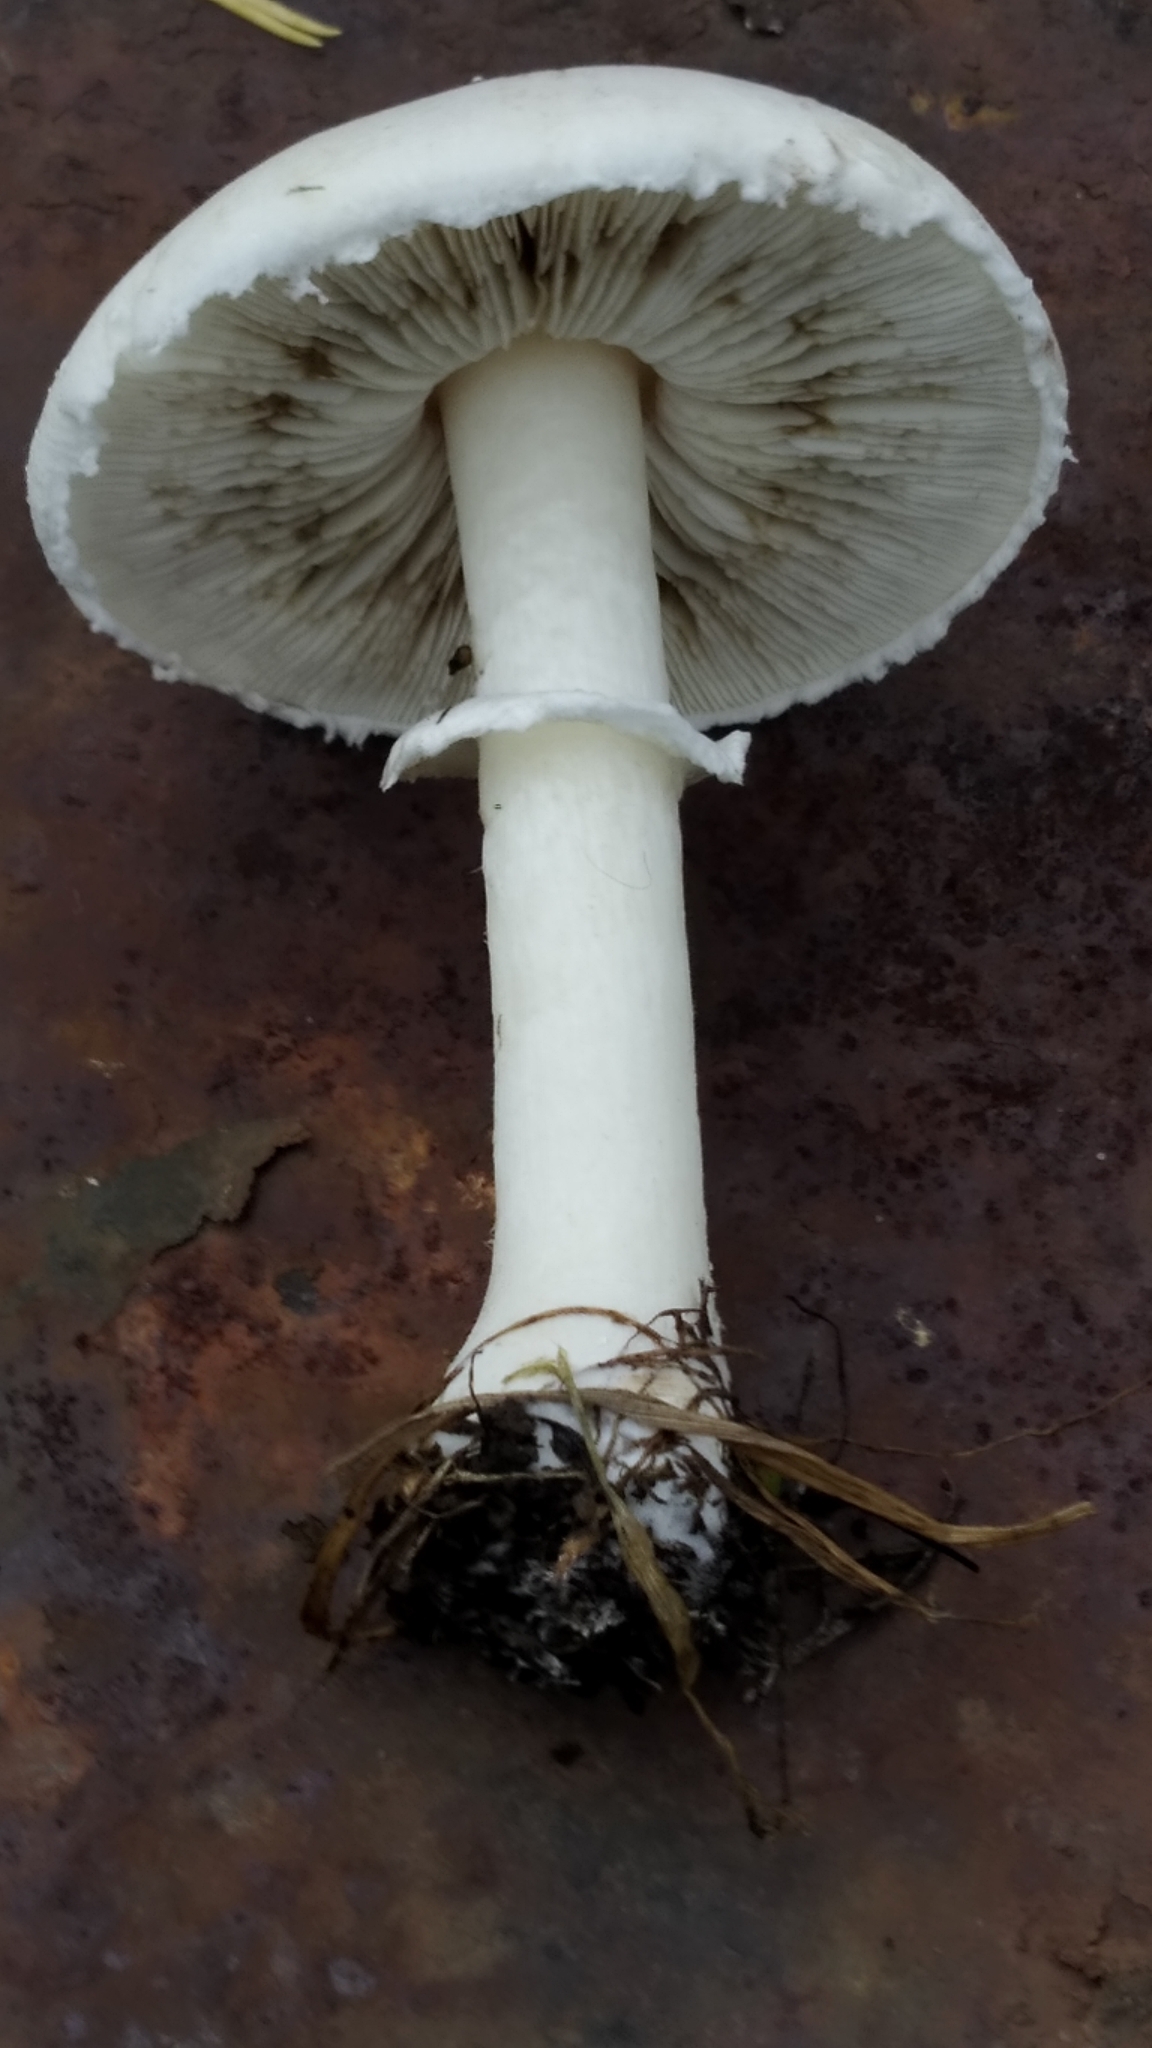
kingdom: Fungi
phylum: Basidiomycota
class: Agaricomycetes
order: Agaricales
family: Agaricaceae
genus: Leucoagaricus
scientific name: Leucoagaricus leucothites
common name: White dapperling
